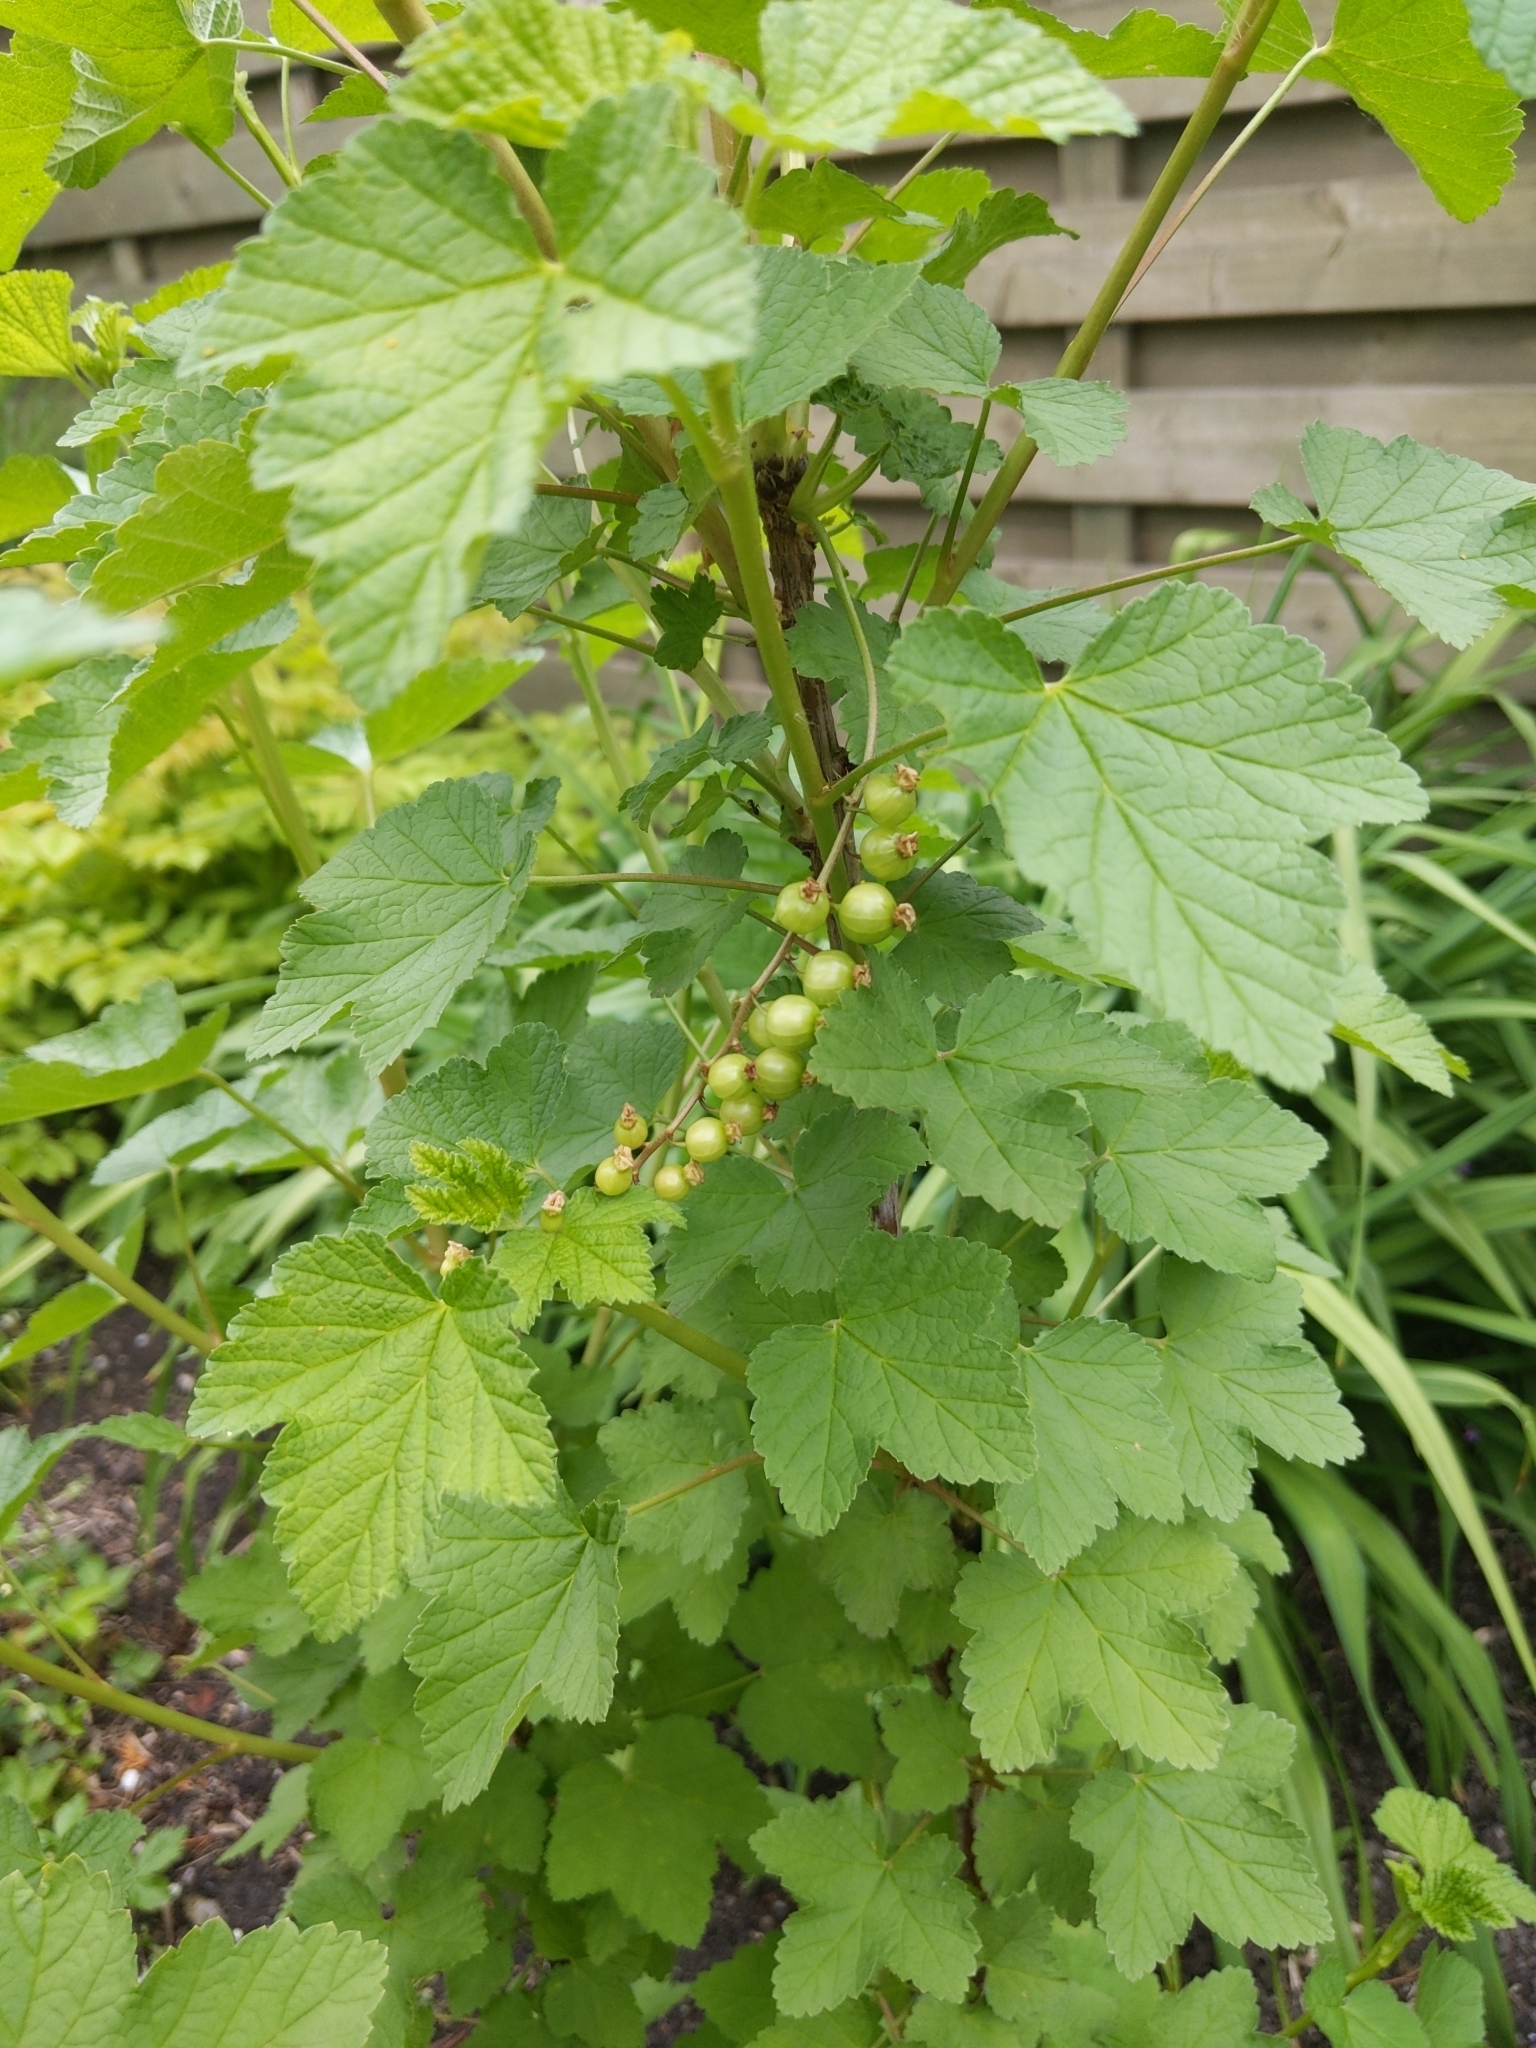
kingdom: Plantae
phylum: Tracheophyta
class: Magnoliopsida
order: Saxifragales
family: Grossulariaceae
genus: Ribes
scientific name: Ribes rubrum
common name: Red currant
